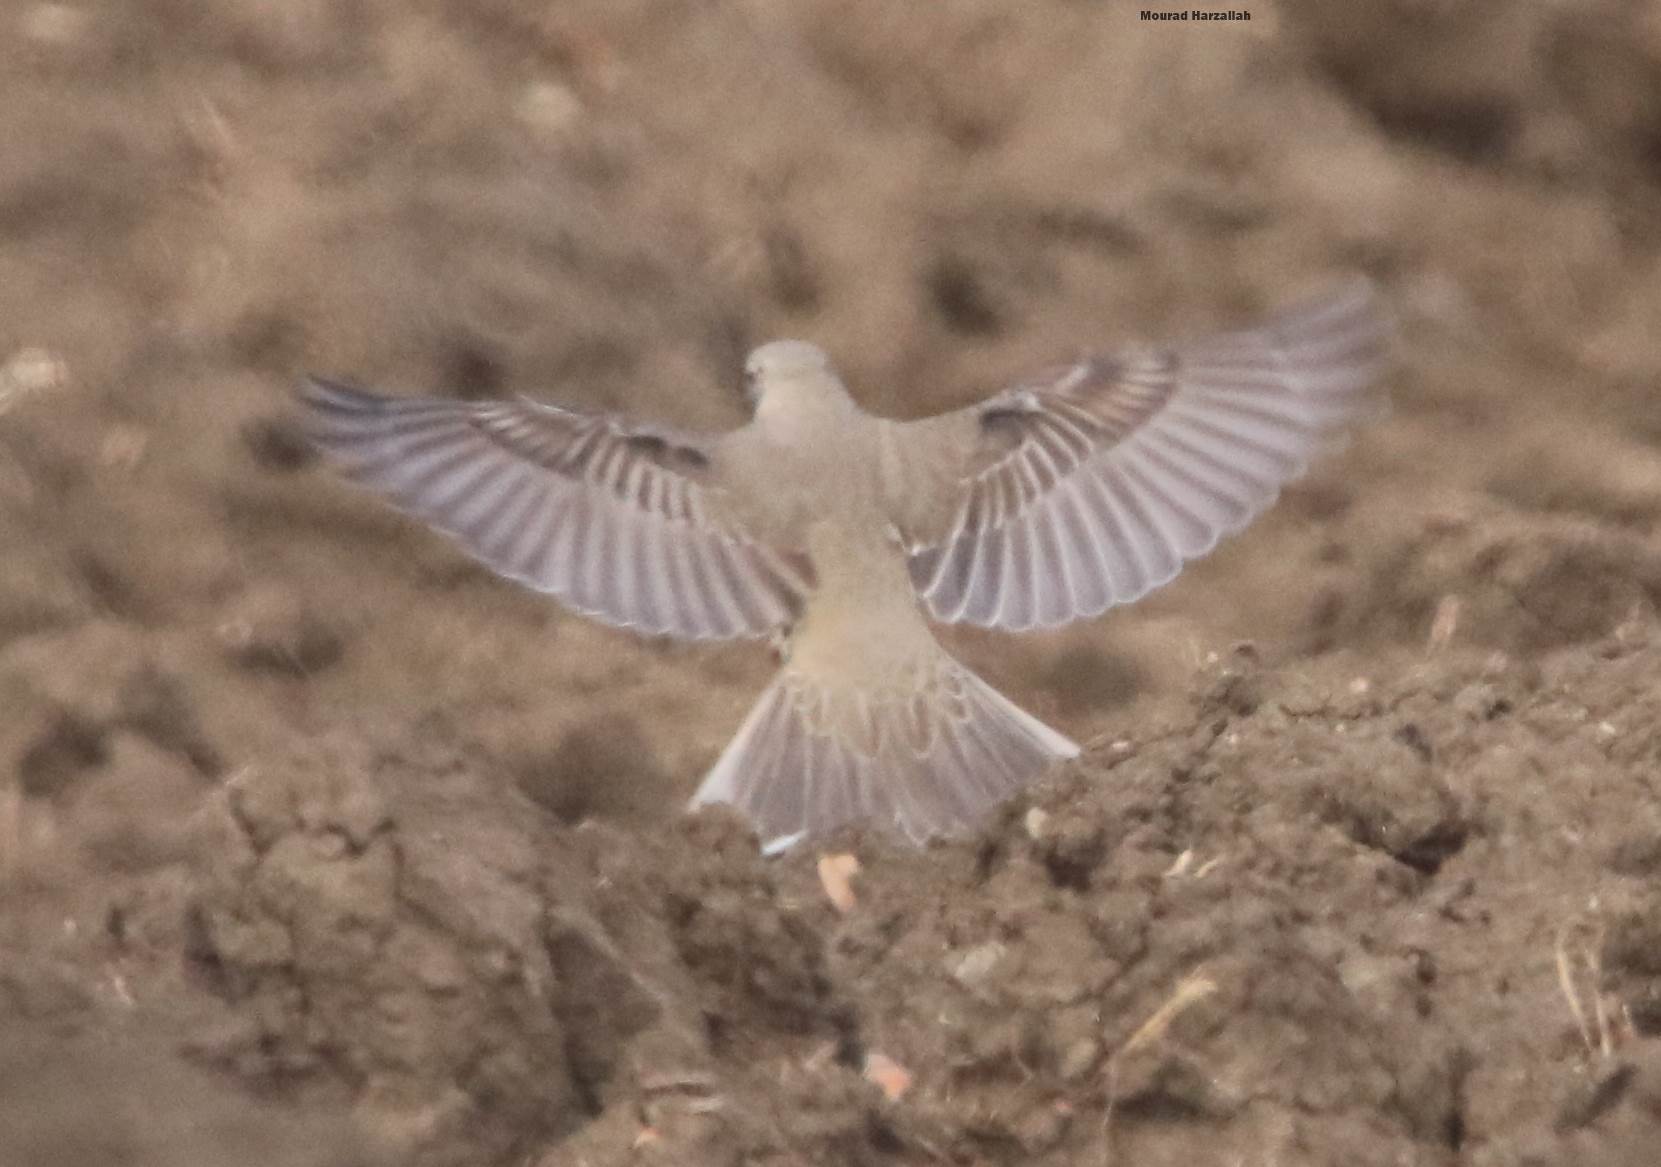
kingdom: Animalia
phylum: Chordata
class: Aves
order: Passeriformes
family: Turdidae
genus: Turdus
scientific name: Turdus viscivorus
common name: Mistle thrush
